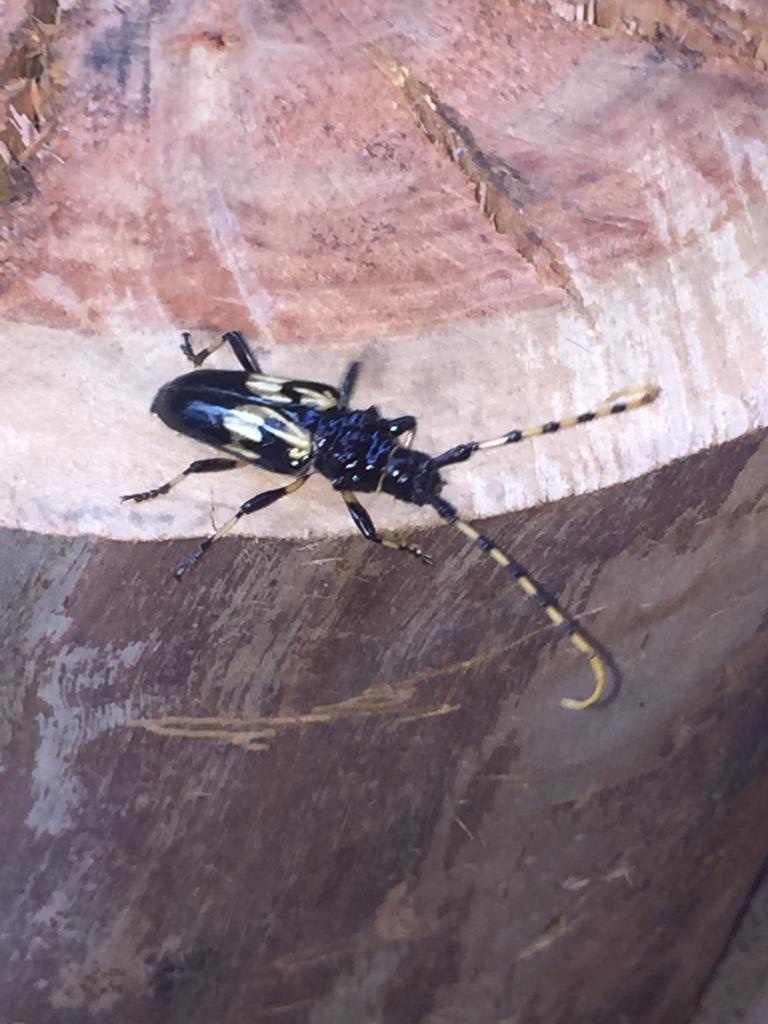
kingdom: Animalia
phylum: Arthropoda
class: Insecta
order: Coleoptera
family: Cerambycidae
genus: Andraegoidus
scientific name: Andraegoidus variegatus
